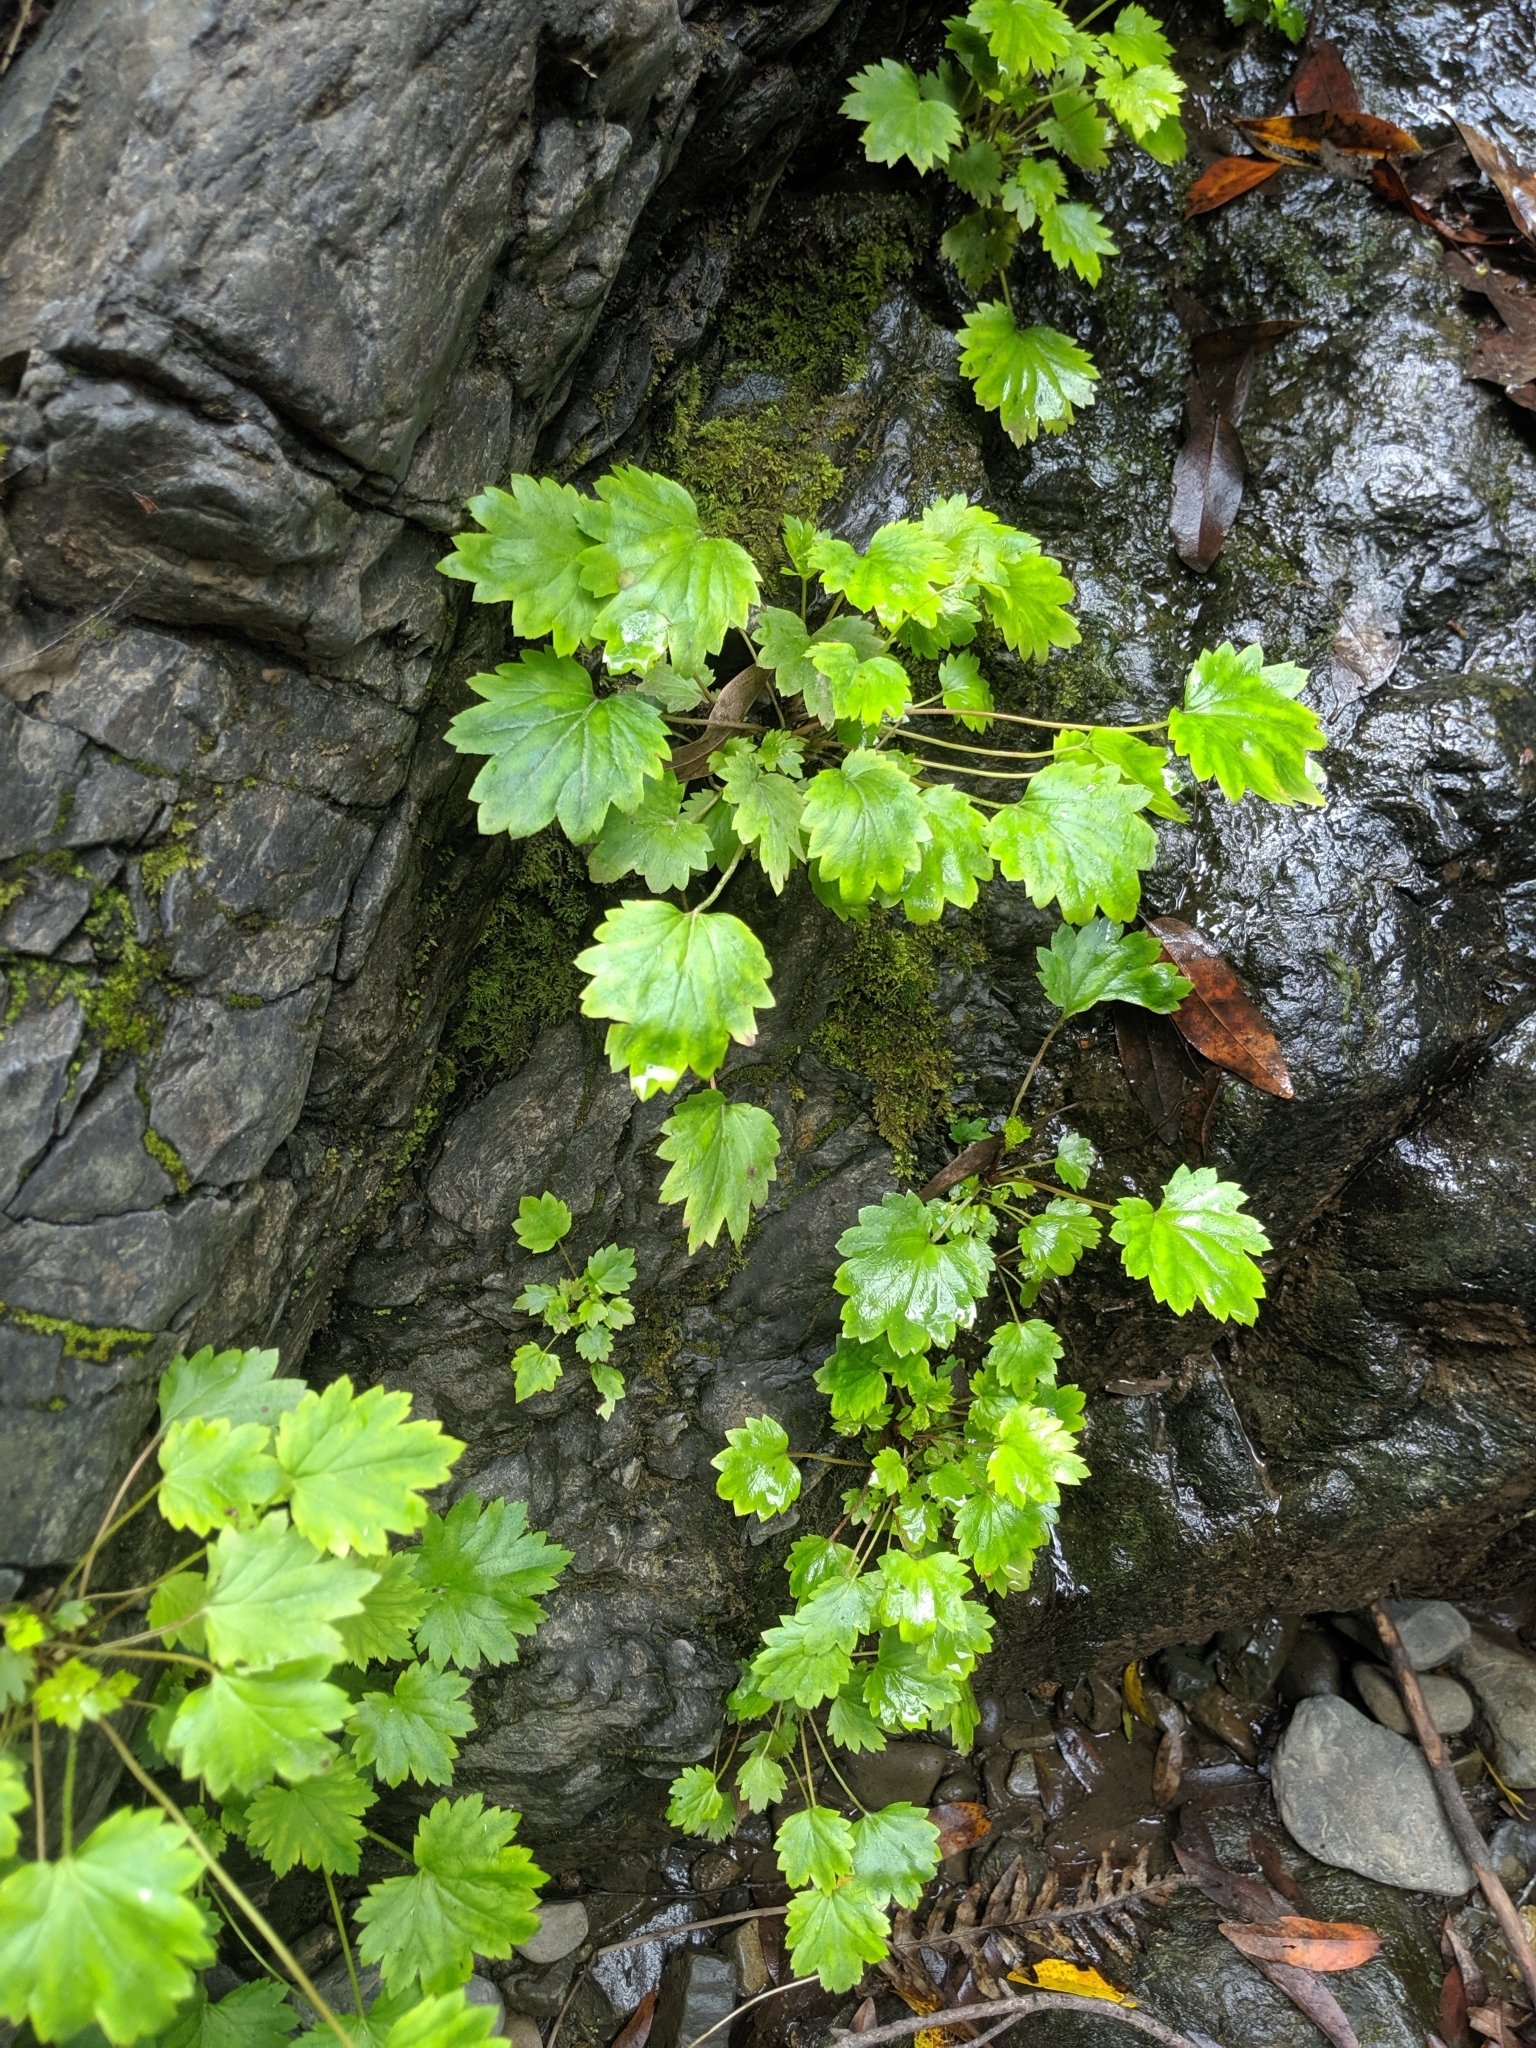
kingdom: Plantae
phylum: Tracheophyta
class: Magnoliopsida
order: Saxifragales
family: Saxifragaceae
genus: Boykinia
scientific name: Boykinia occidentalis
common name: Coast boykinia
